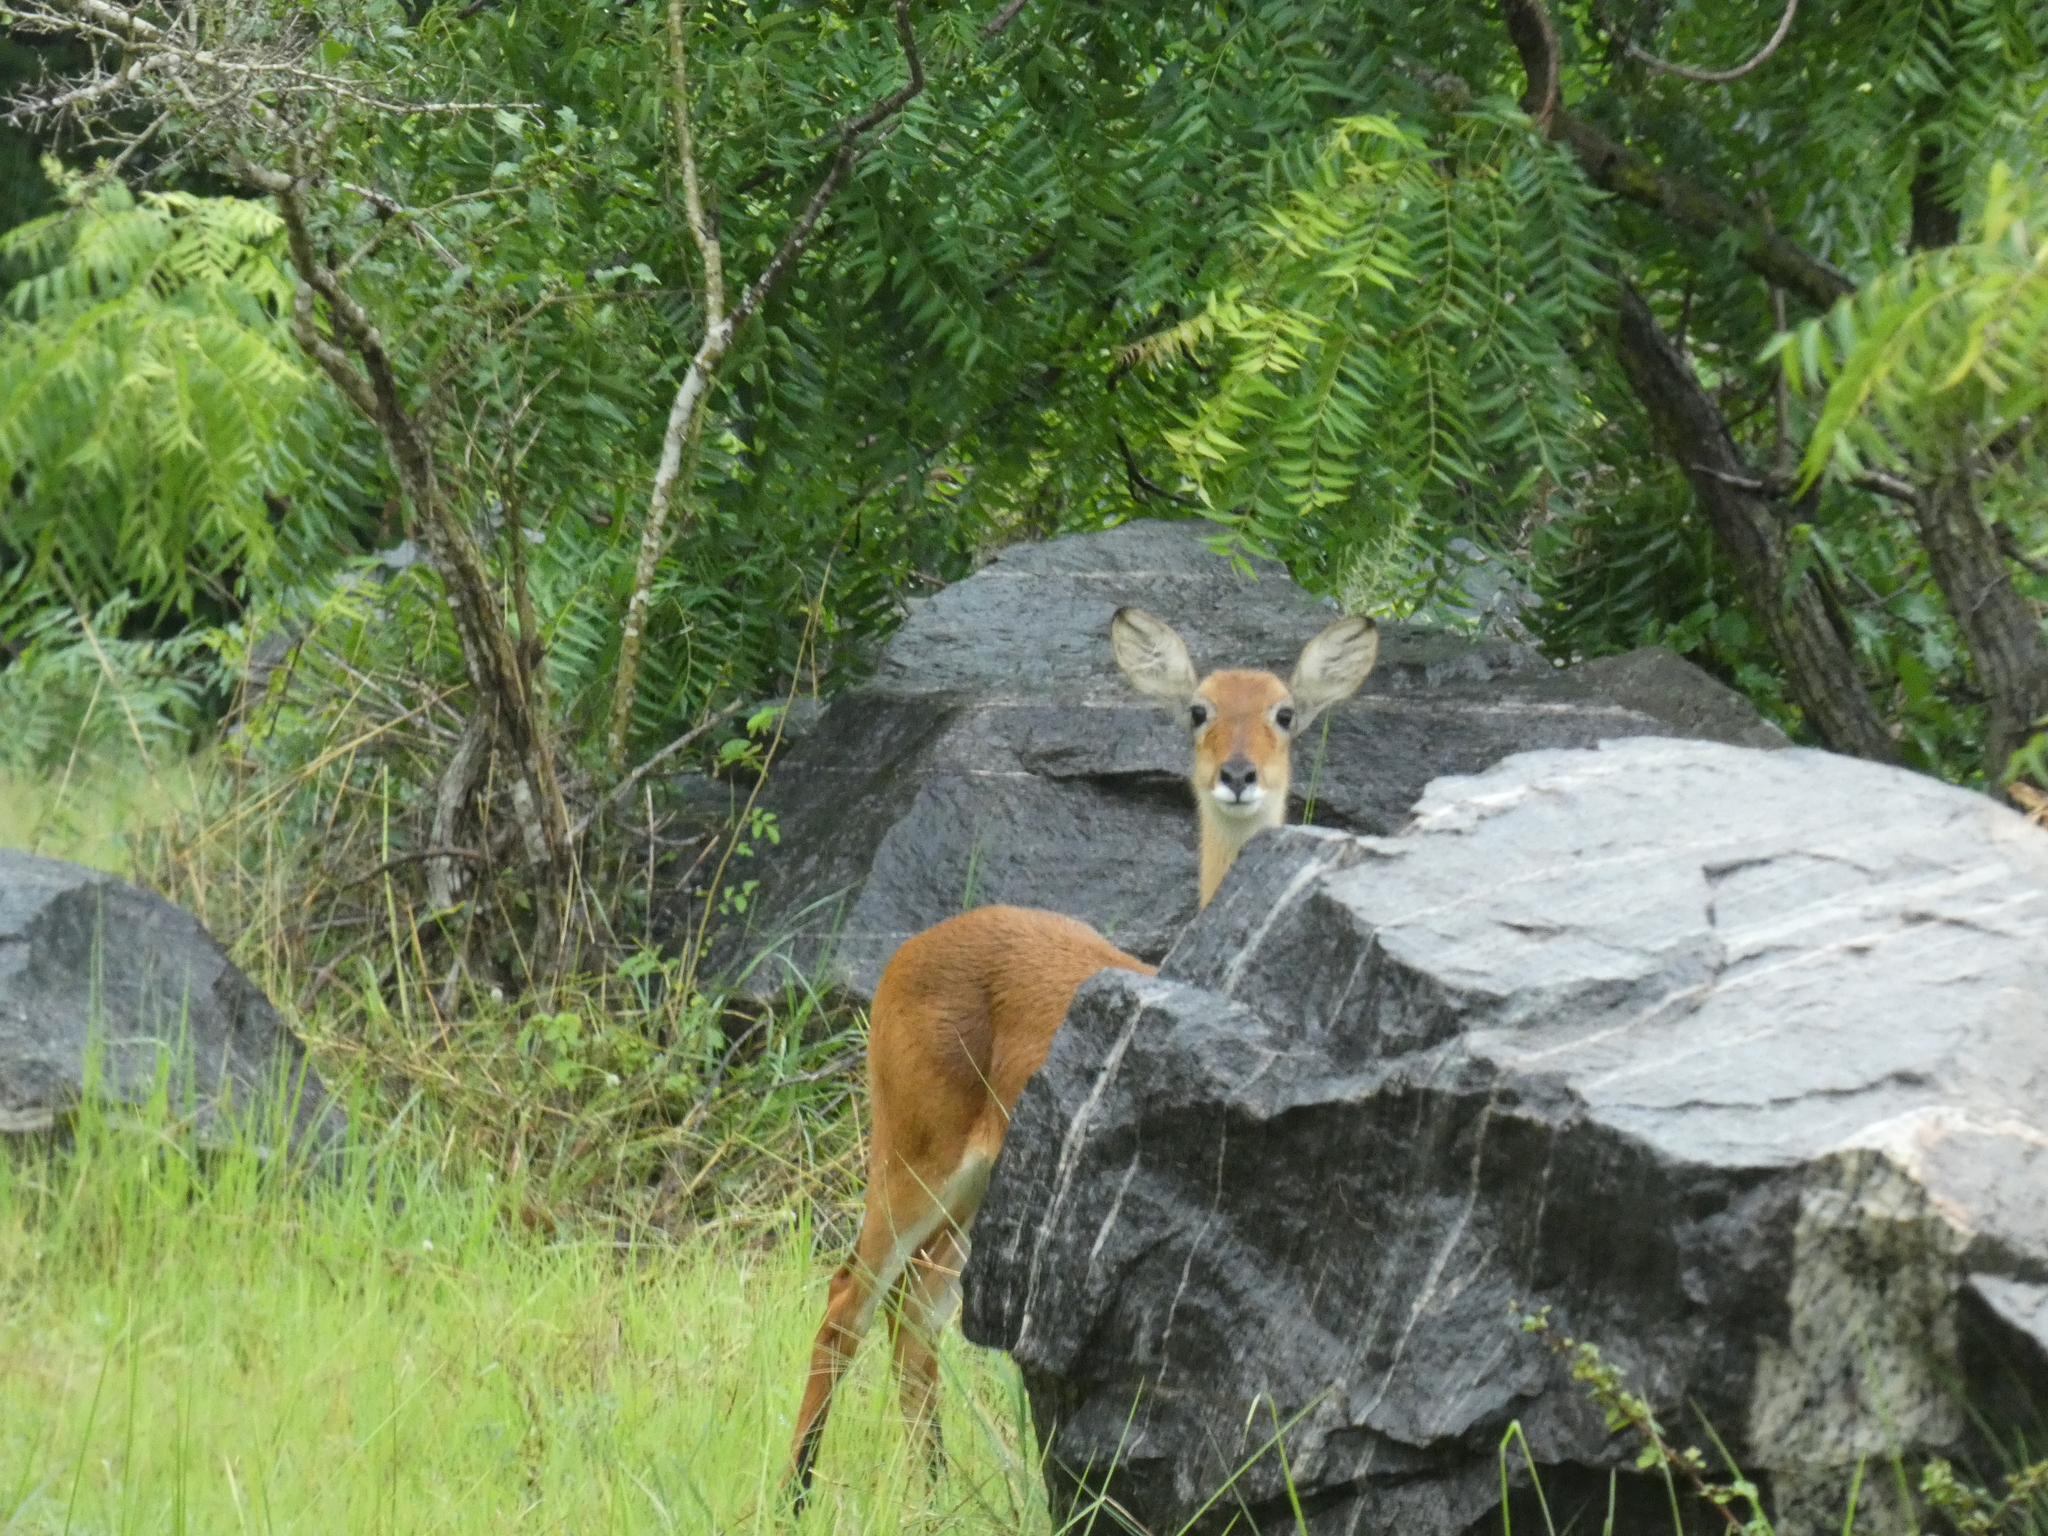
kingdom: Animalia
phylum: Chordata
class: Mammalia
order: Artiodactyla
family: Bovidae
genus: Kobus
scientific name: Kobus kob
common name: Kob
